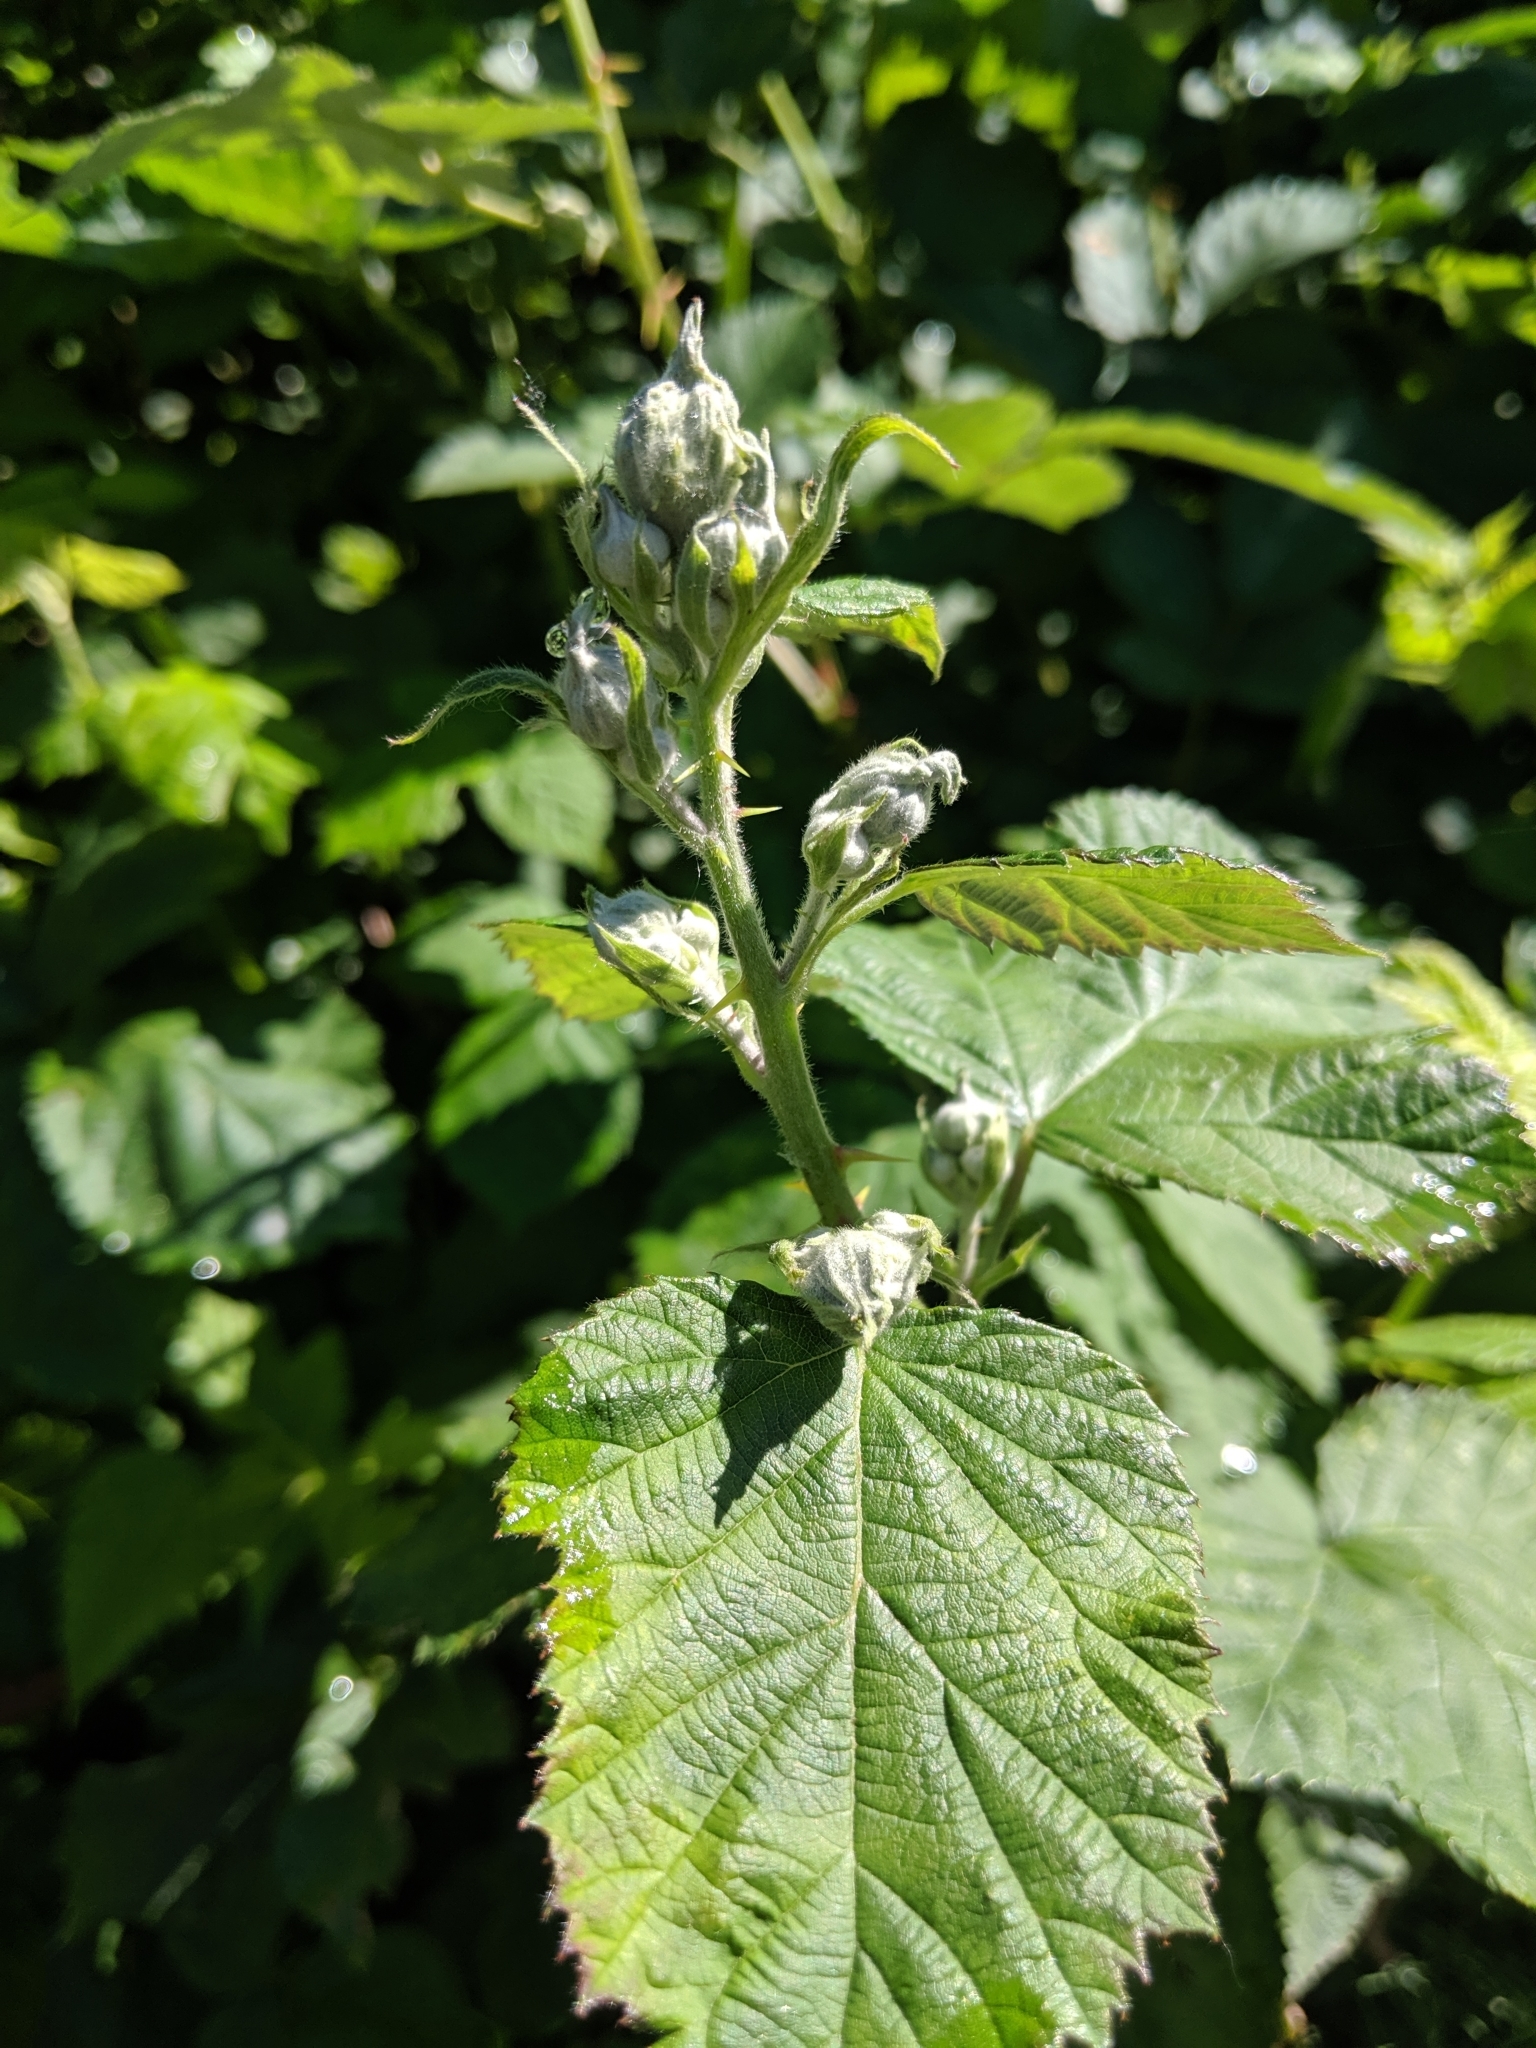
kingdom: Plantae
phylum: Tracheophyta
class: Magnoliopsida
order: Rosales
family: Rosaceae
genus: Rubus
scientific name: Rubus armeniacus
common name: Himalayan blackberry
